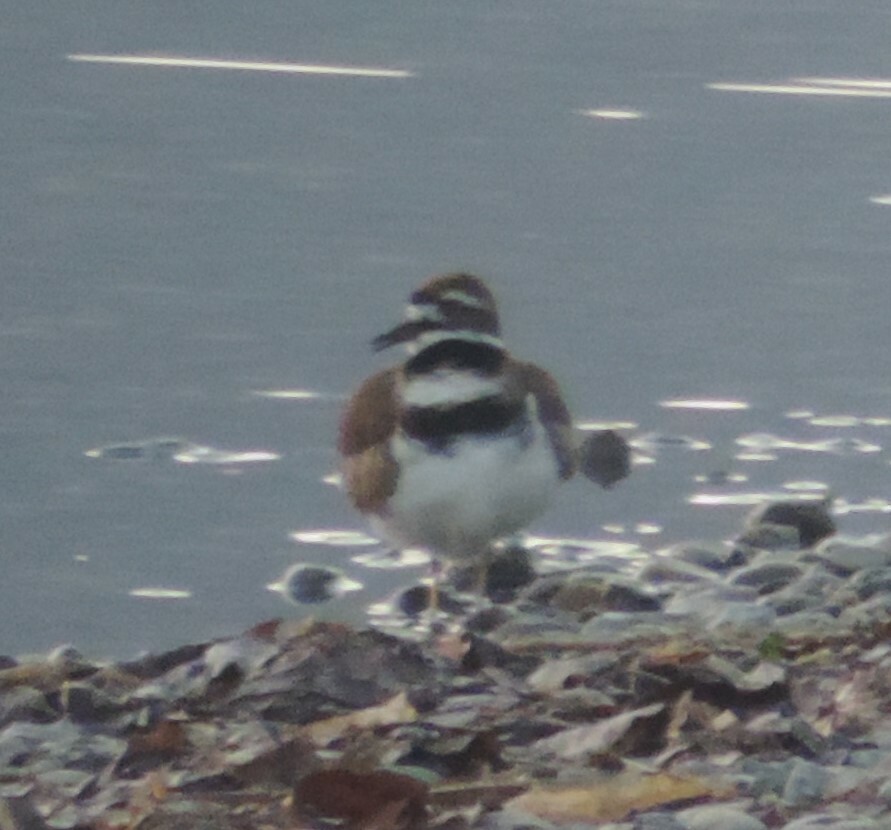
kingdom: Animalia
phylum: Chordata
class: Aves
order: Charadriiformes
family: Charadriidae
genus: Charadrius
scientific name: Charadrius vociferus
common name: Killdeer
